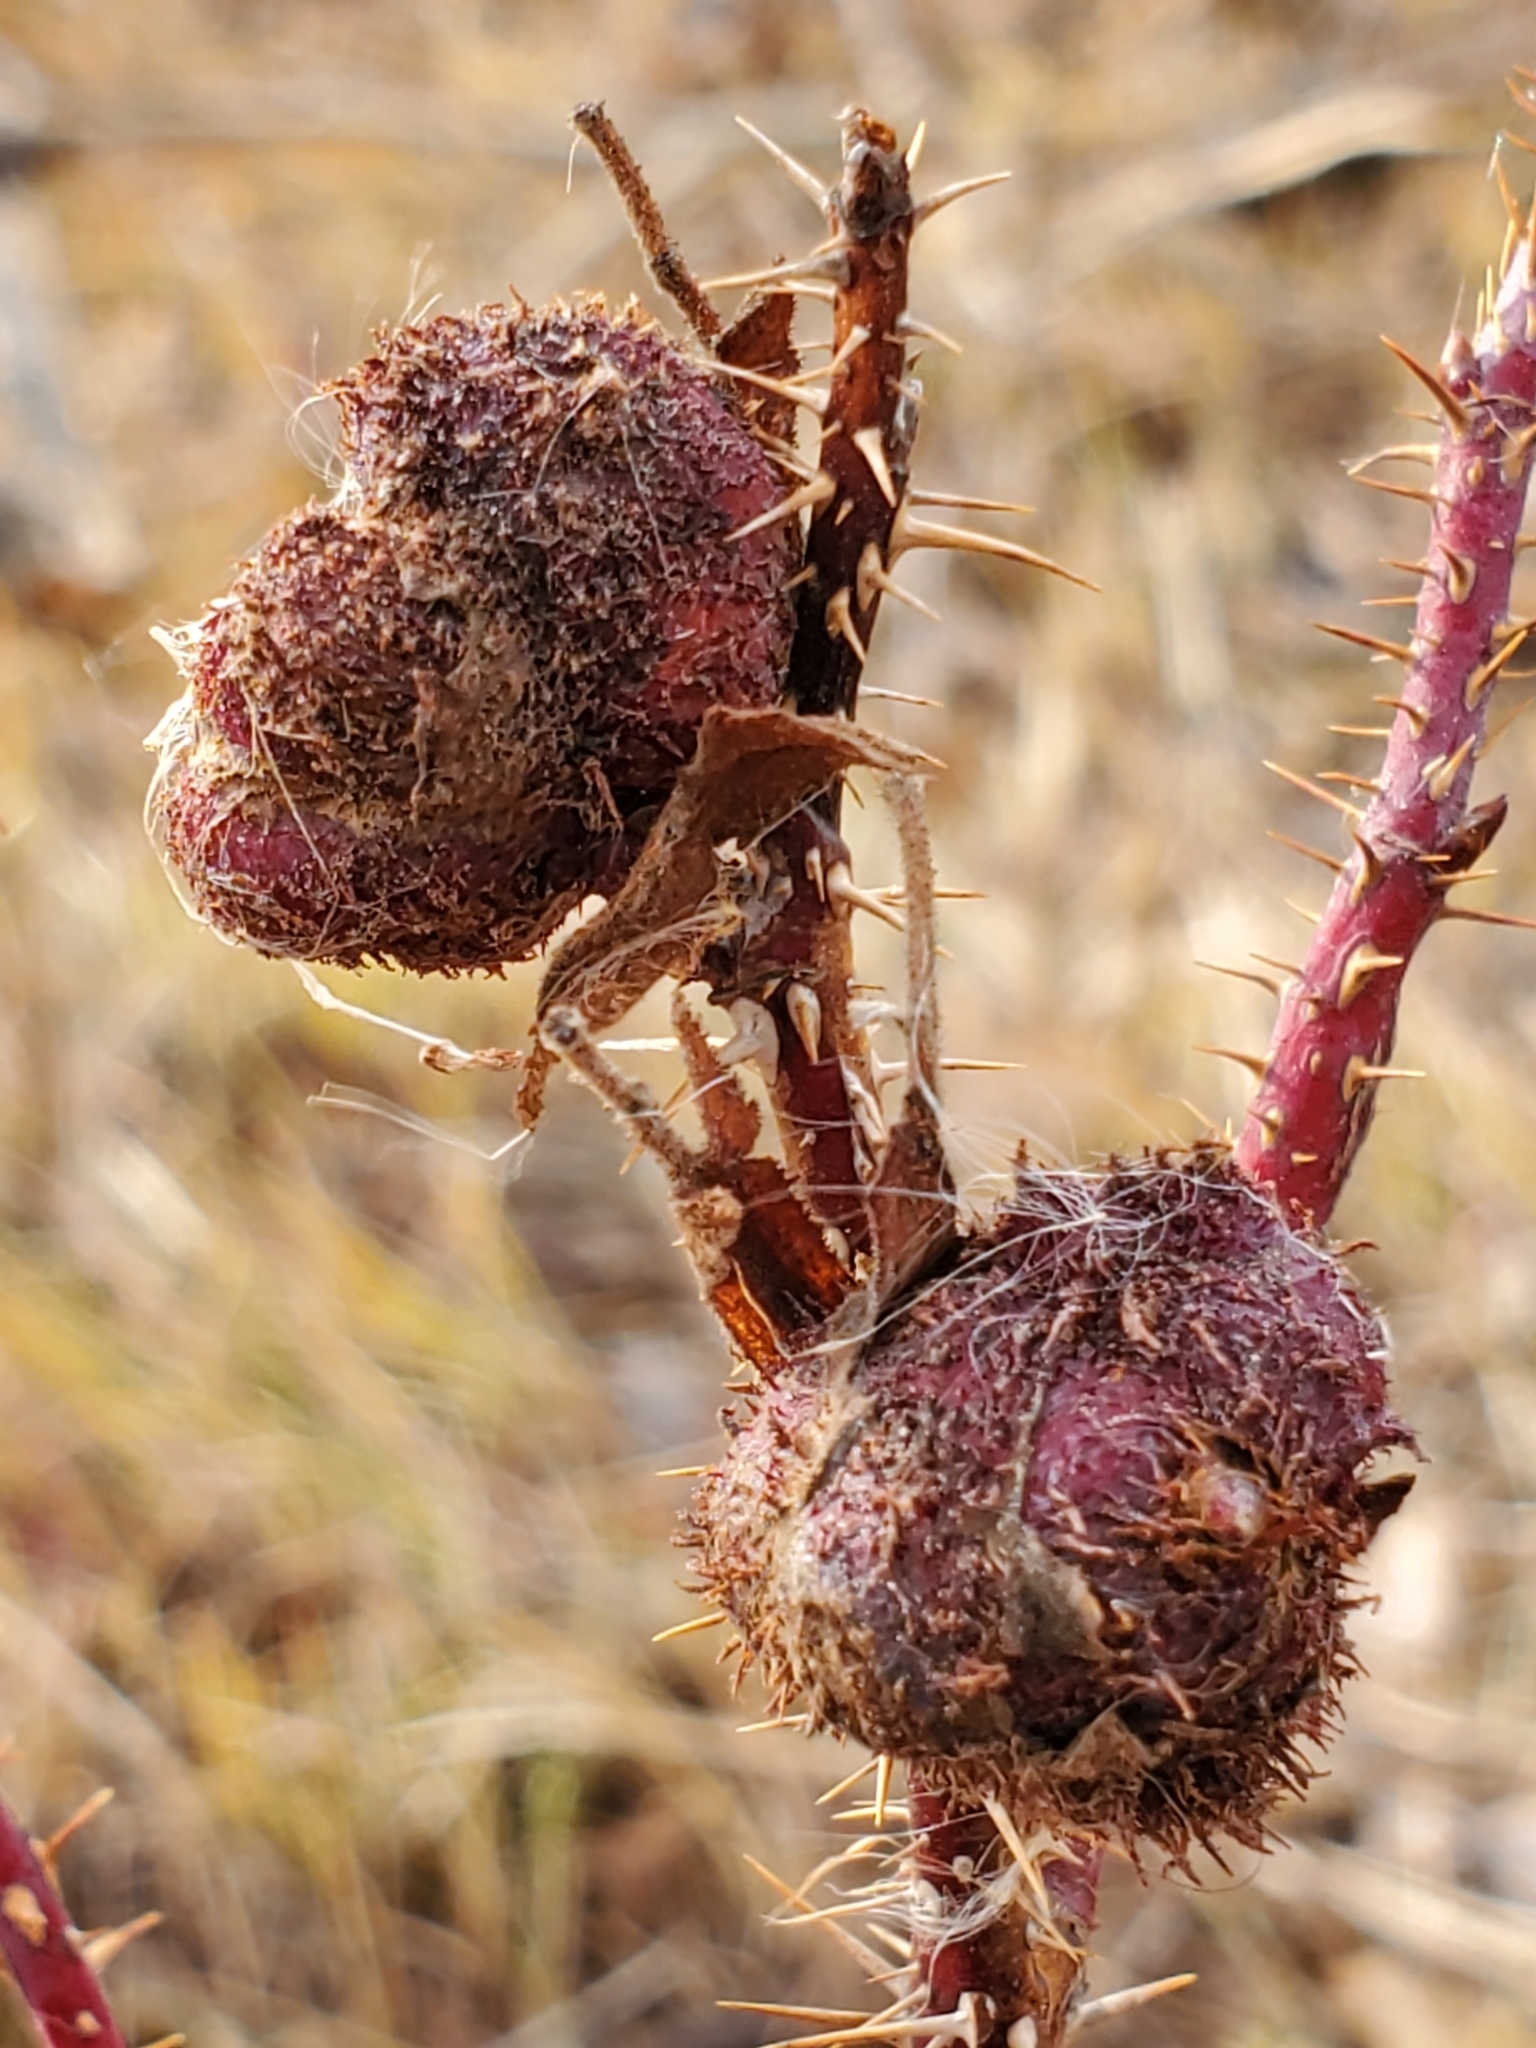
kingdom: Animalia
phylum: Arthropoda
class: Insecta
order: Hymenoptera
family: Cynipidae
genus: Diplolepis
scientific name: Diplolepis spinosa
